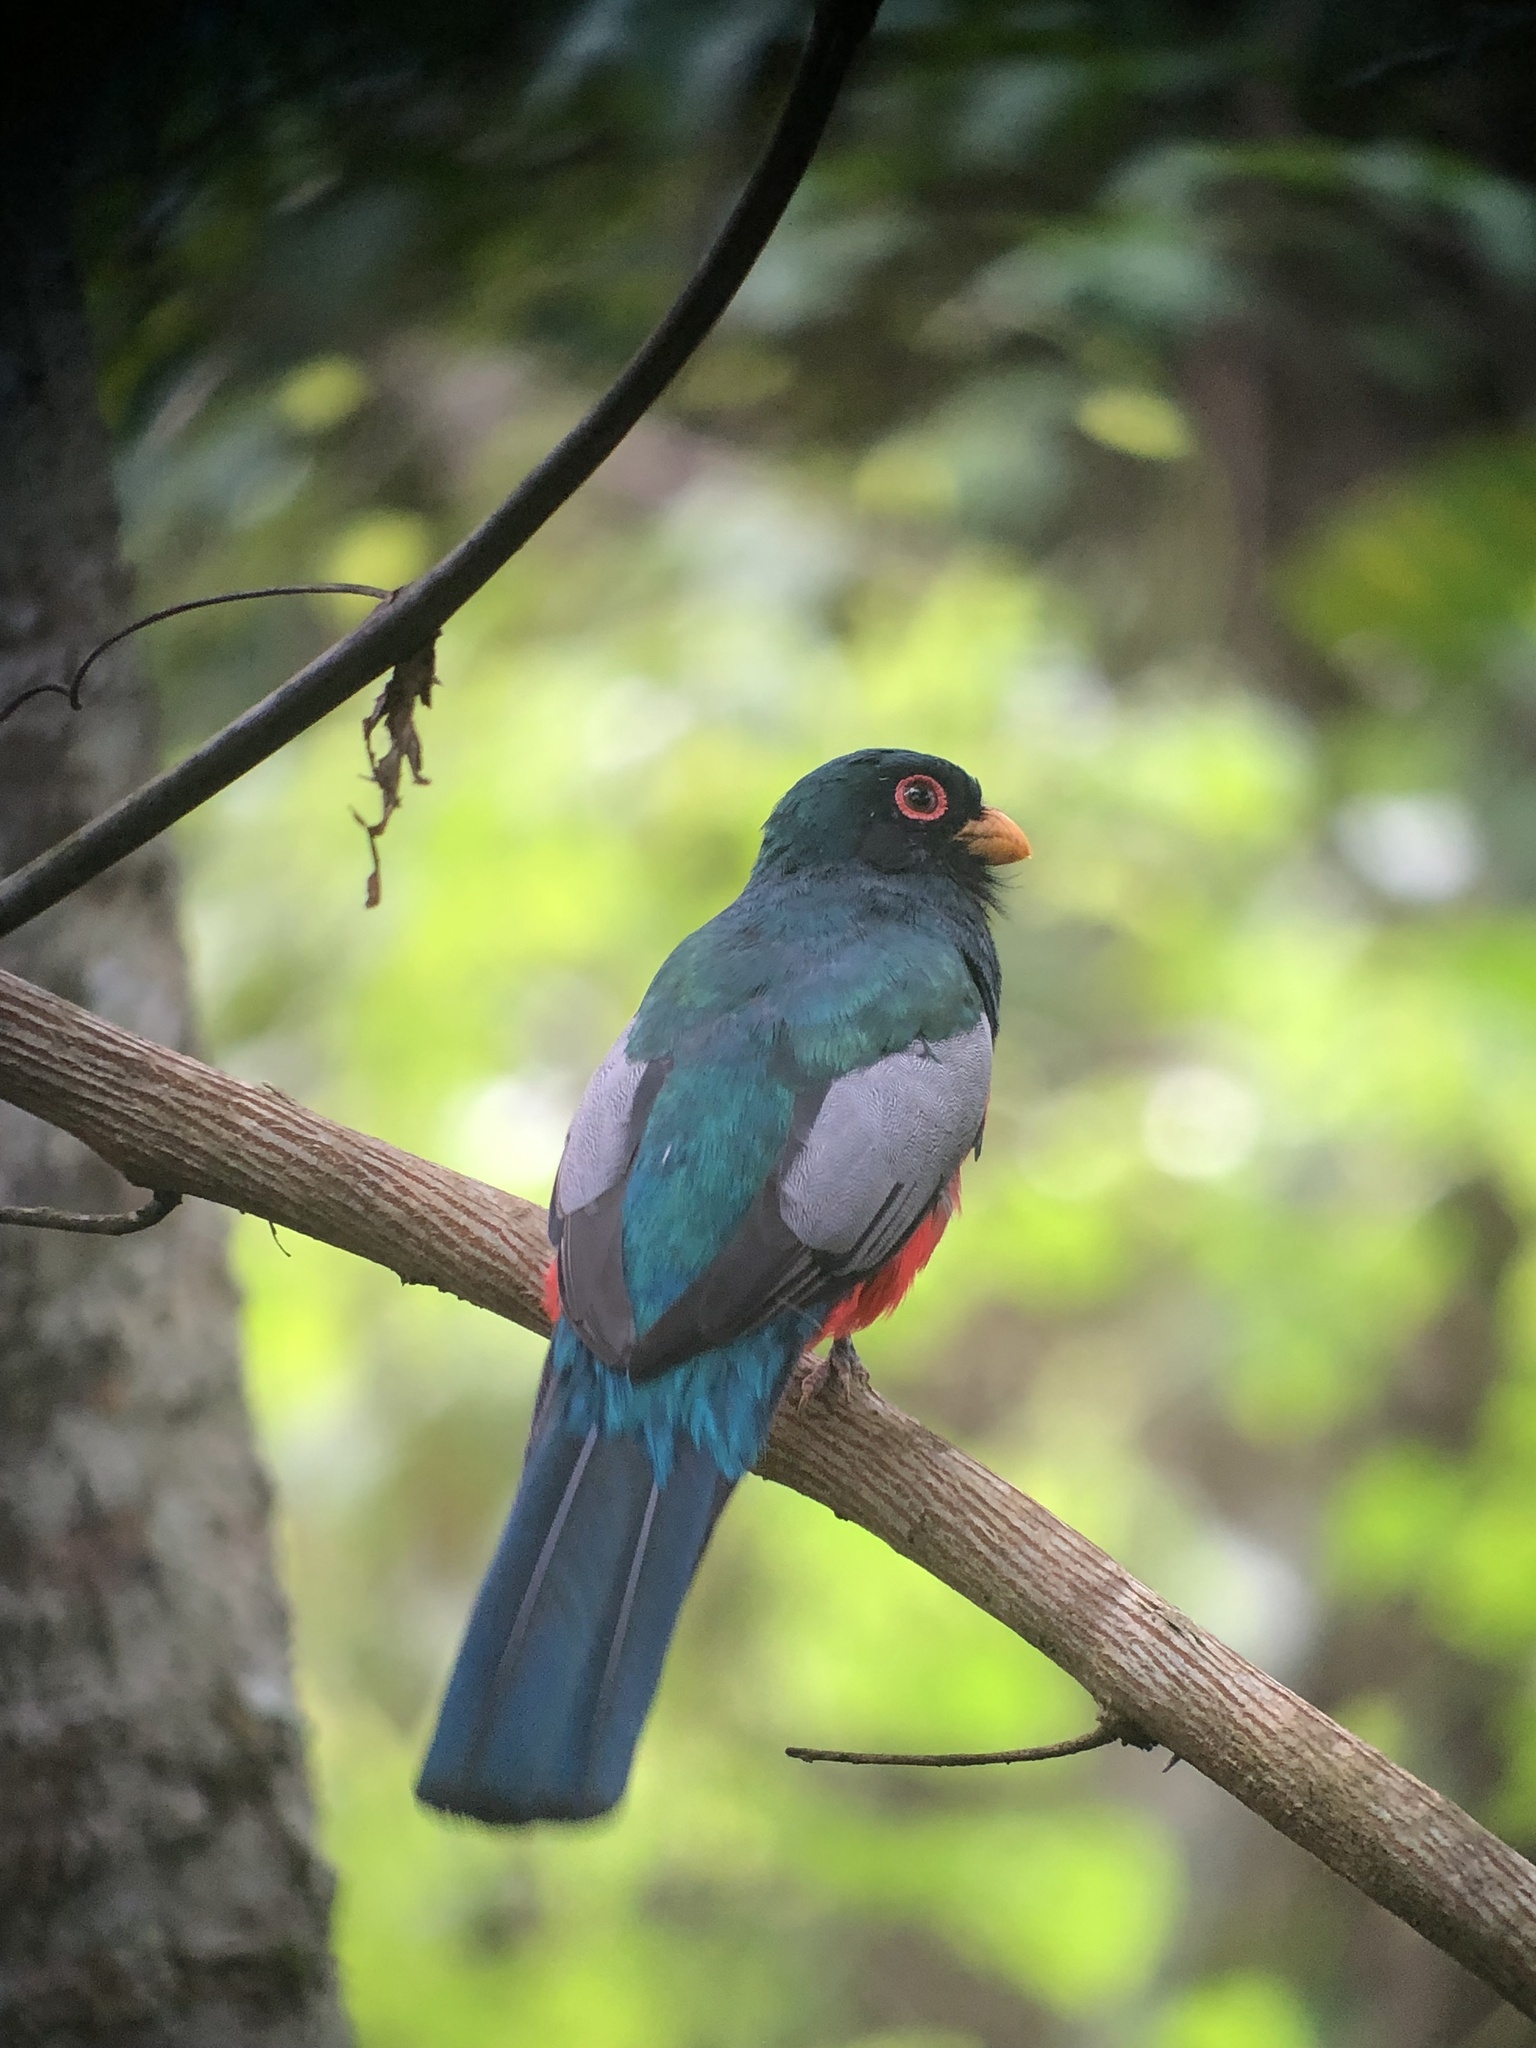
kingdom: Animalia
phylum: Chordata
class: Aves
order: Trogoniformes
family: Trogonidae
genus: Trogon
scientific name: Trogon melanurus
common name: Black-tailed trogon
